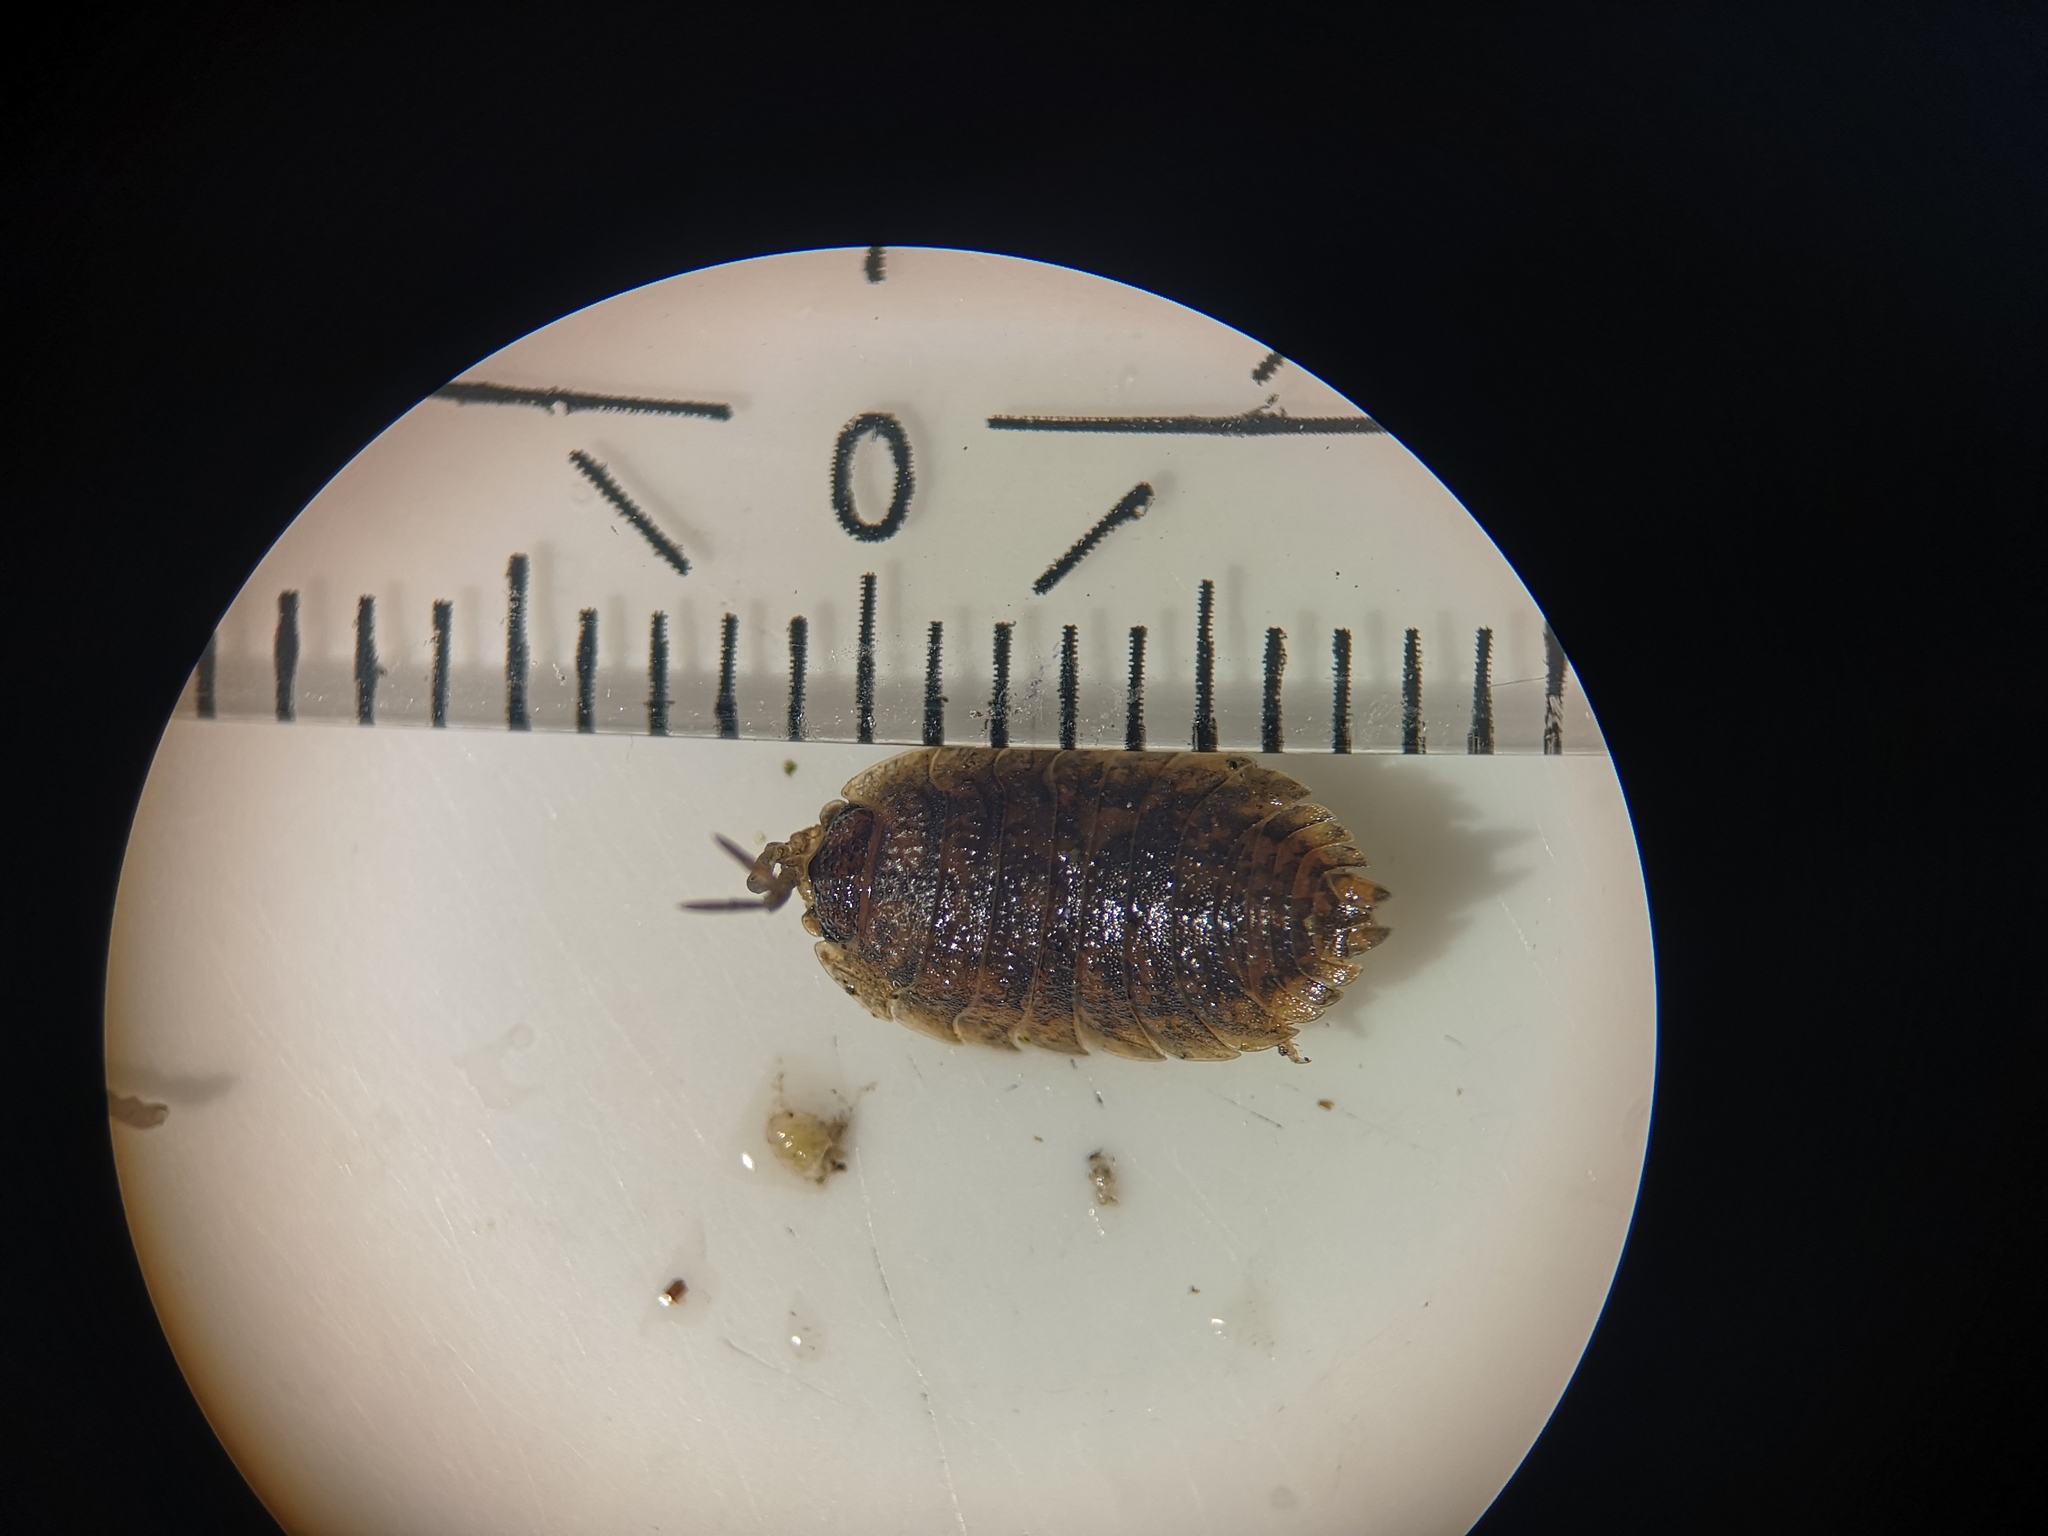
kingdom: Animalia
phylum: Arthropoda
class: Malacostraca
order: Isopoda
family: Porcellionidae
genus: Porcellio
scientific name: Porcellio scaber
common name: Common rough woodlouse
